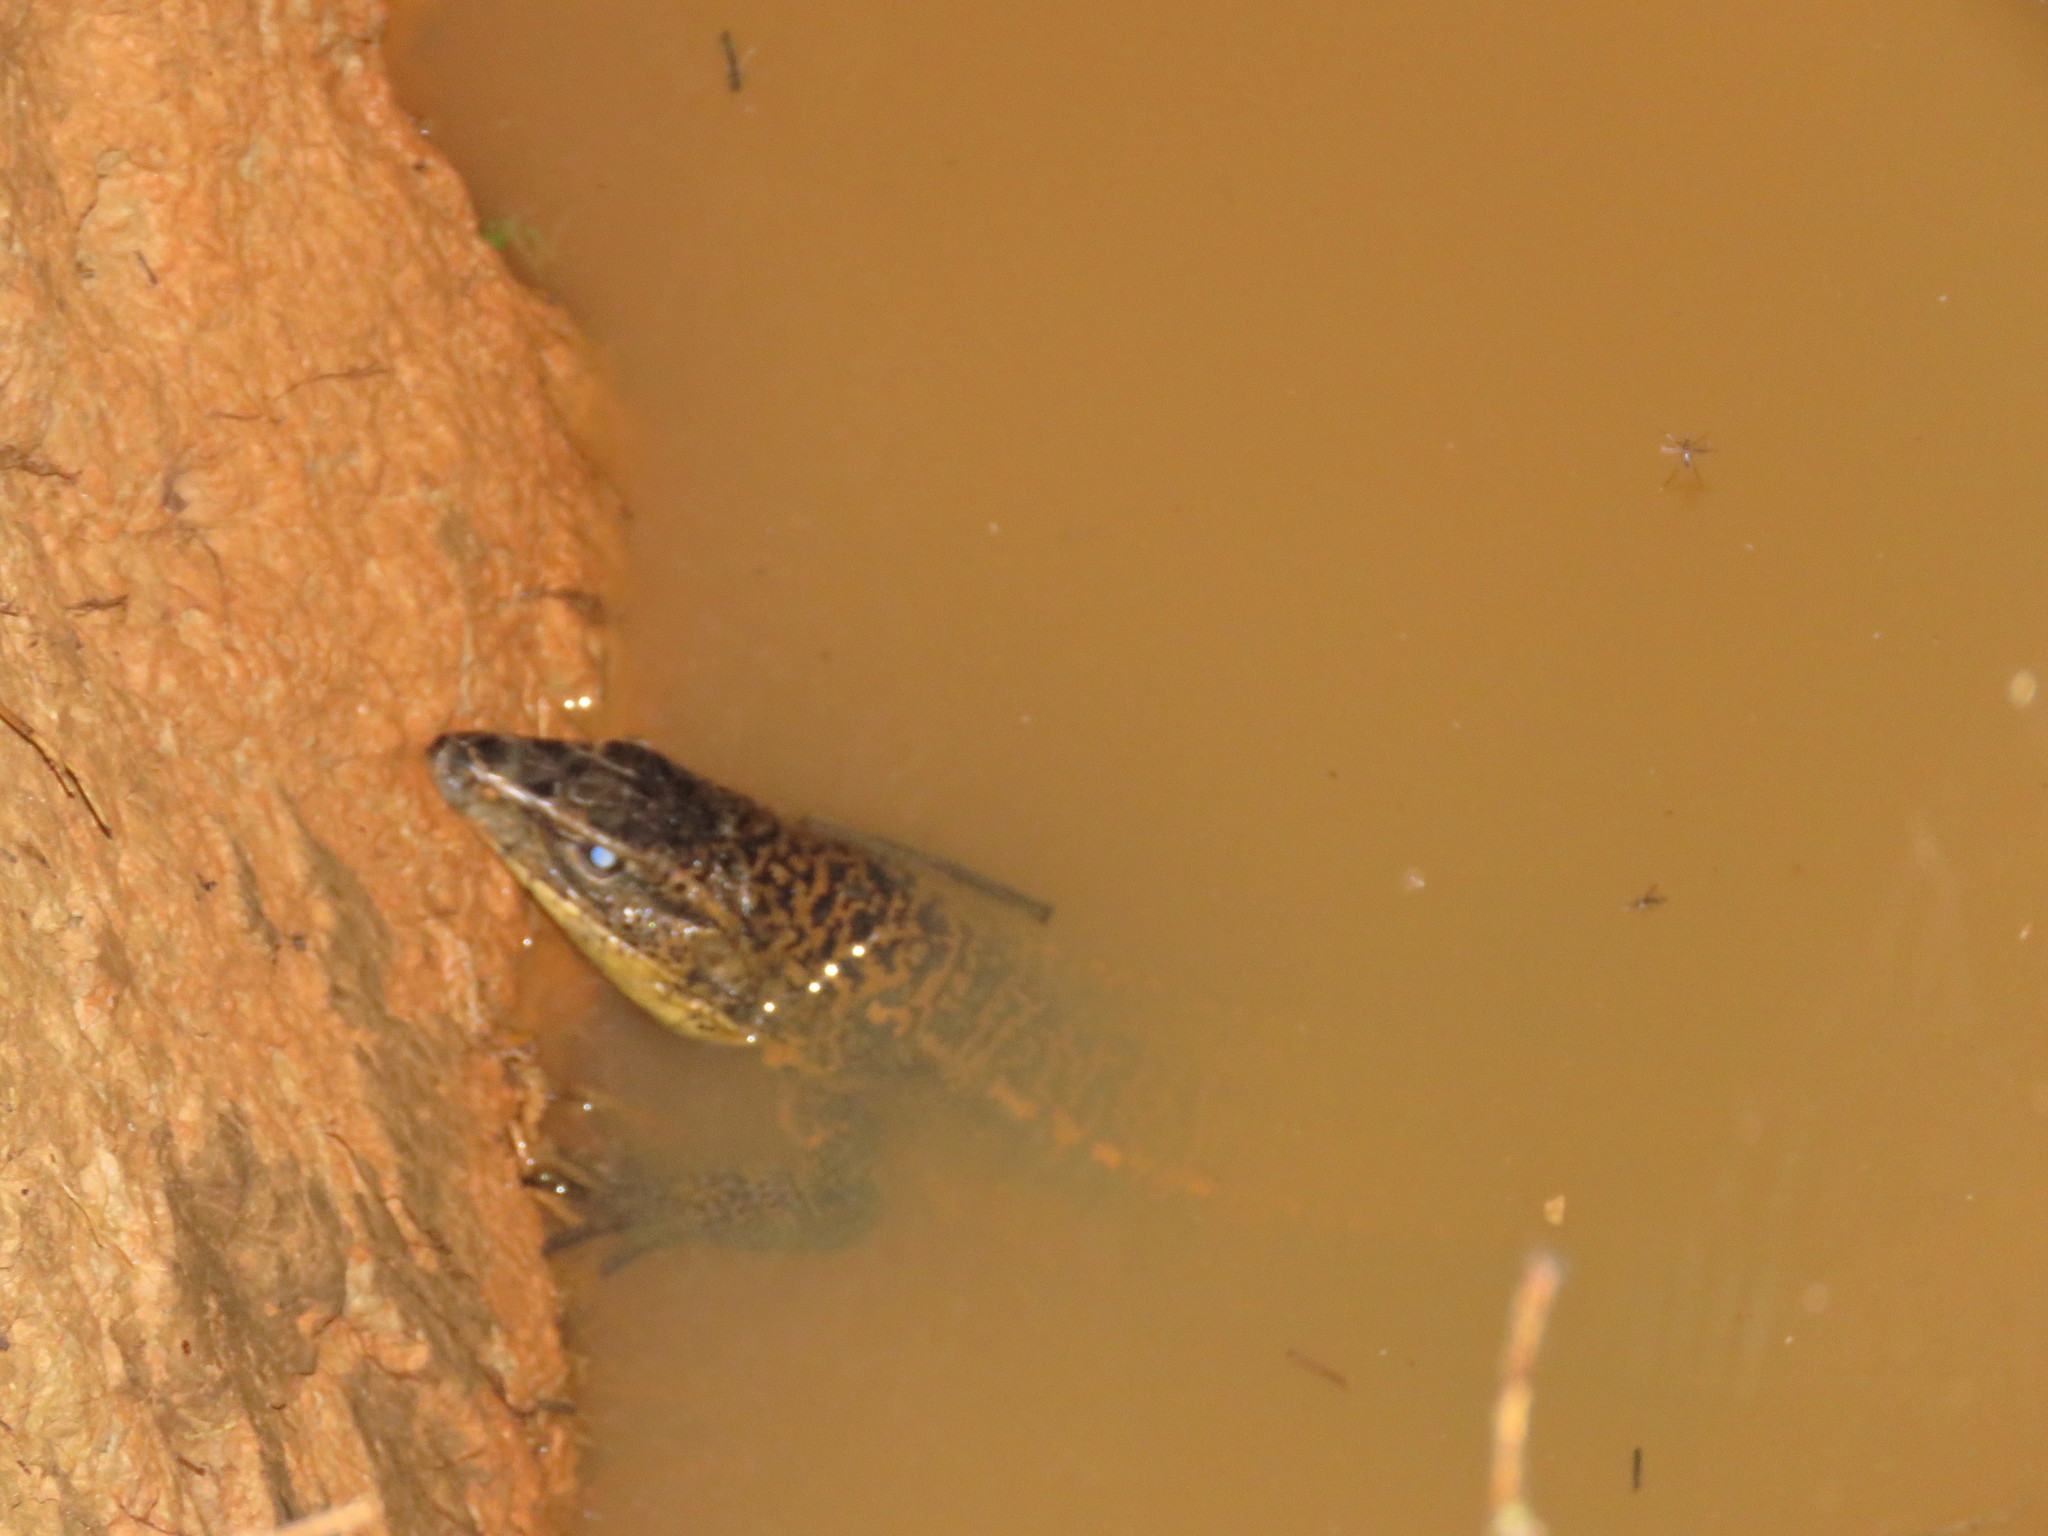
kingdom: Animalia
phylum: Chordata
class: Squamata
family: Teiidae
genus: Tupinambis
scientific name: Tupinambis cuzcoensis
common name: Cusco tegu lizard
